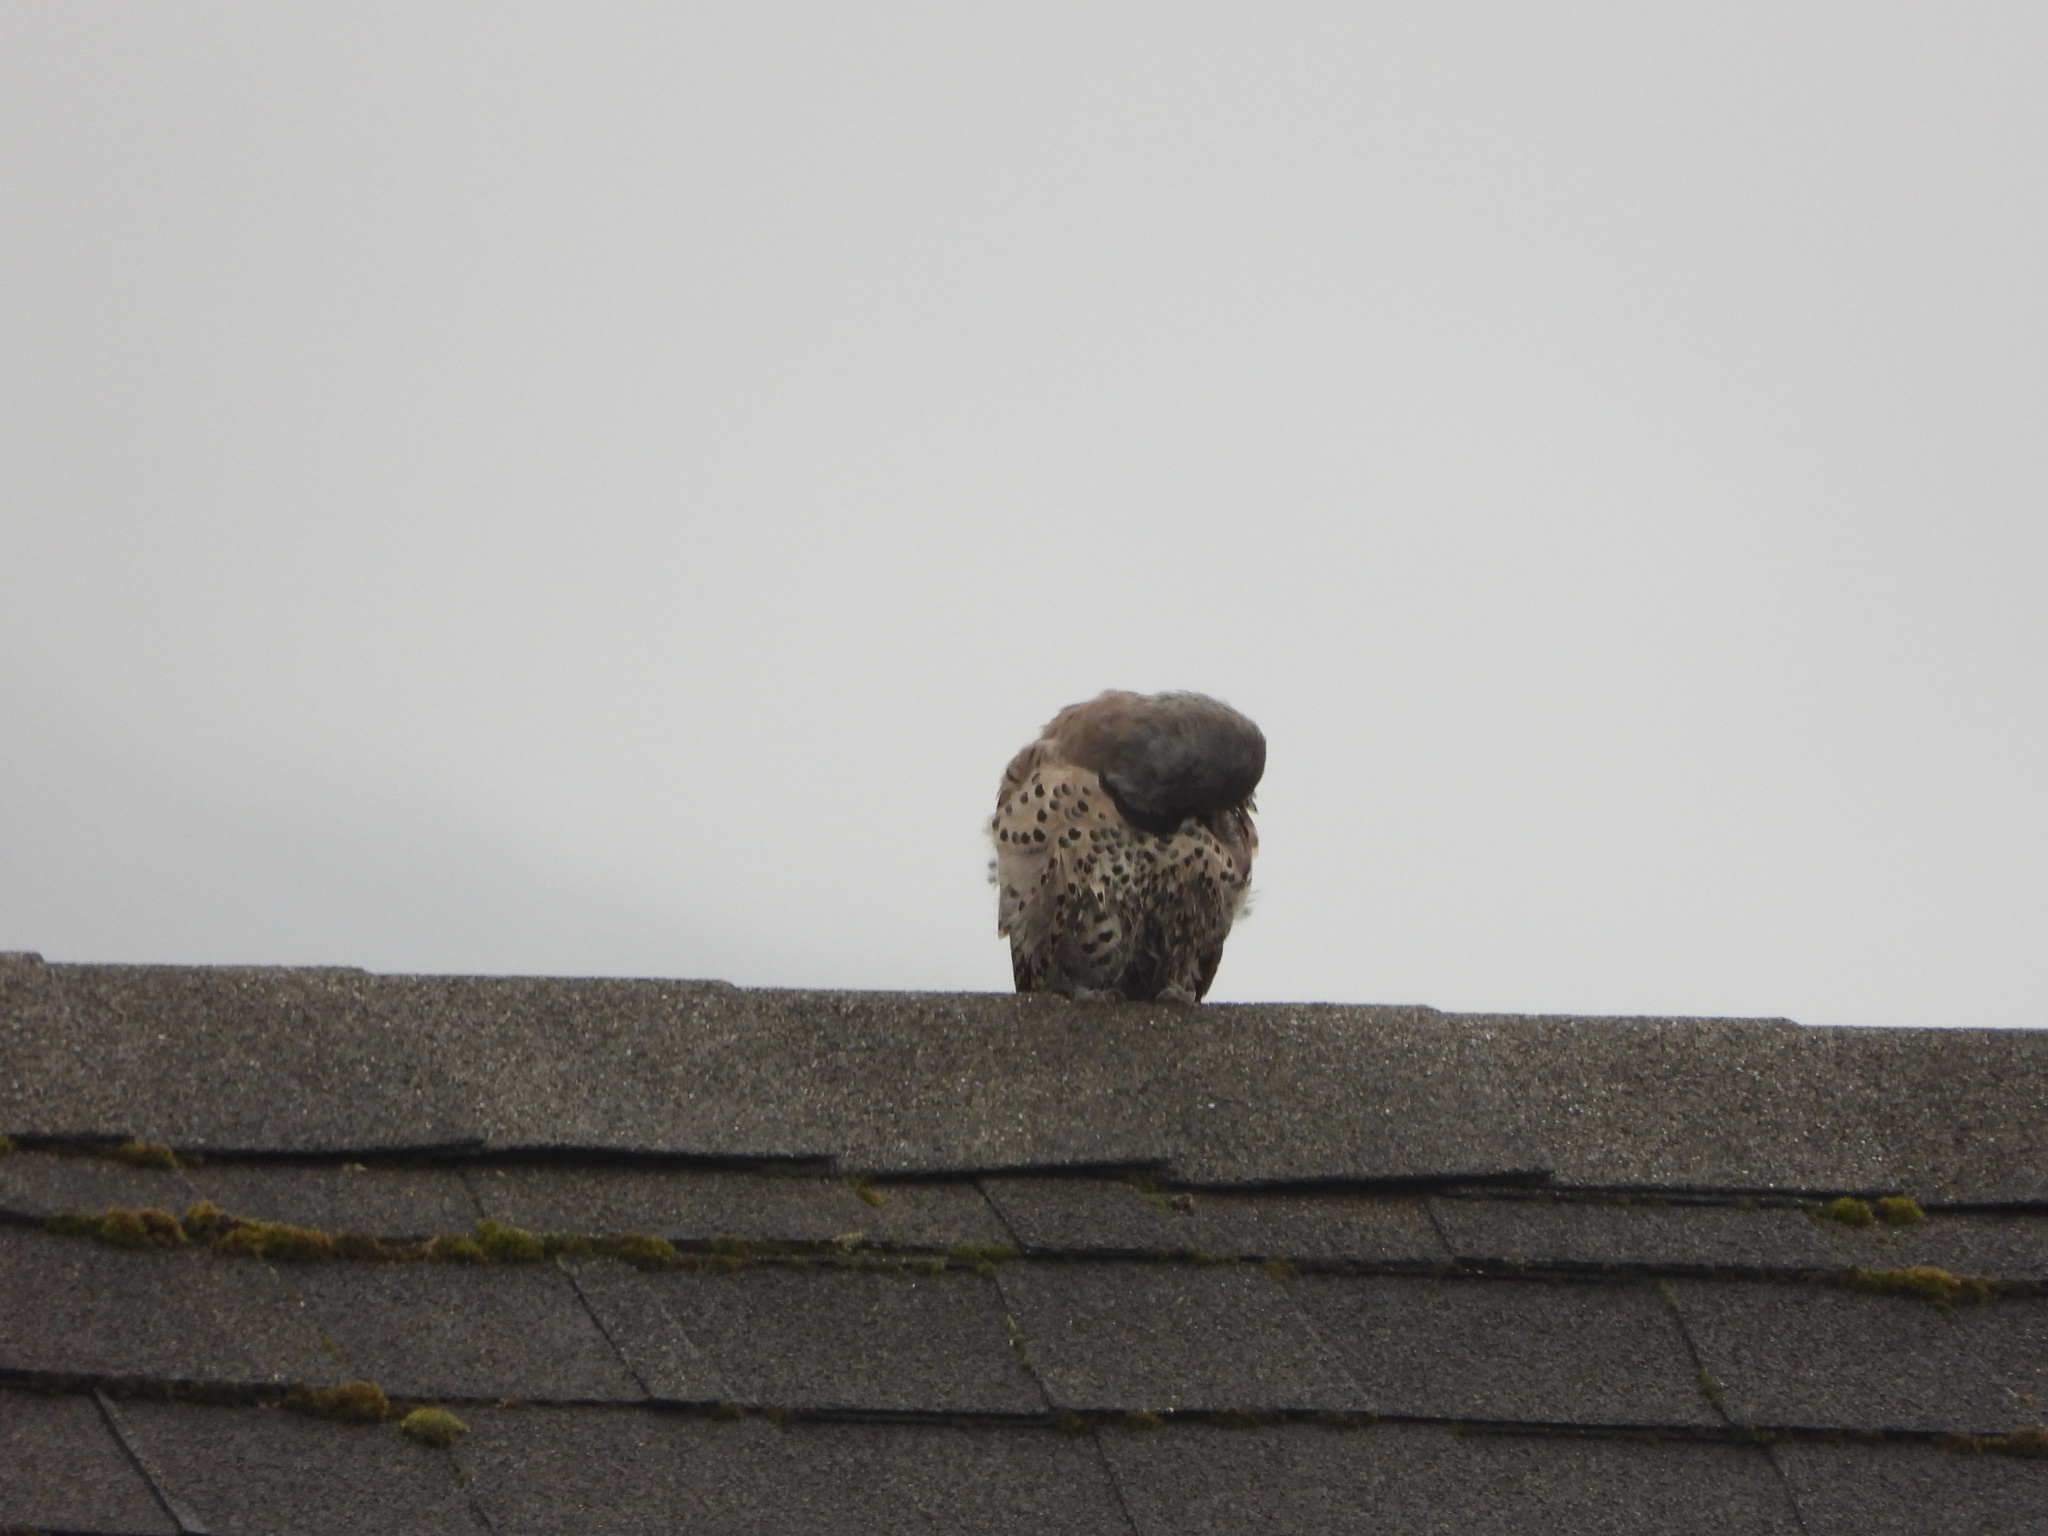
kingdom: Animalia
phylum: Chordata
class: Aves
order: Piciformes
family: Picidae
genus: Colaptes
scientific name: Colaptes auratus
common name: Northern flicker
